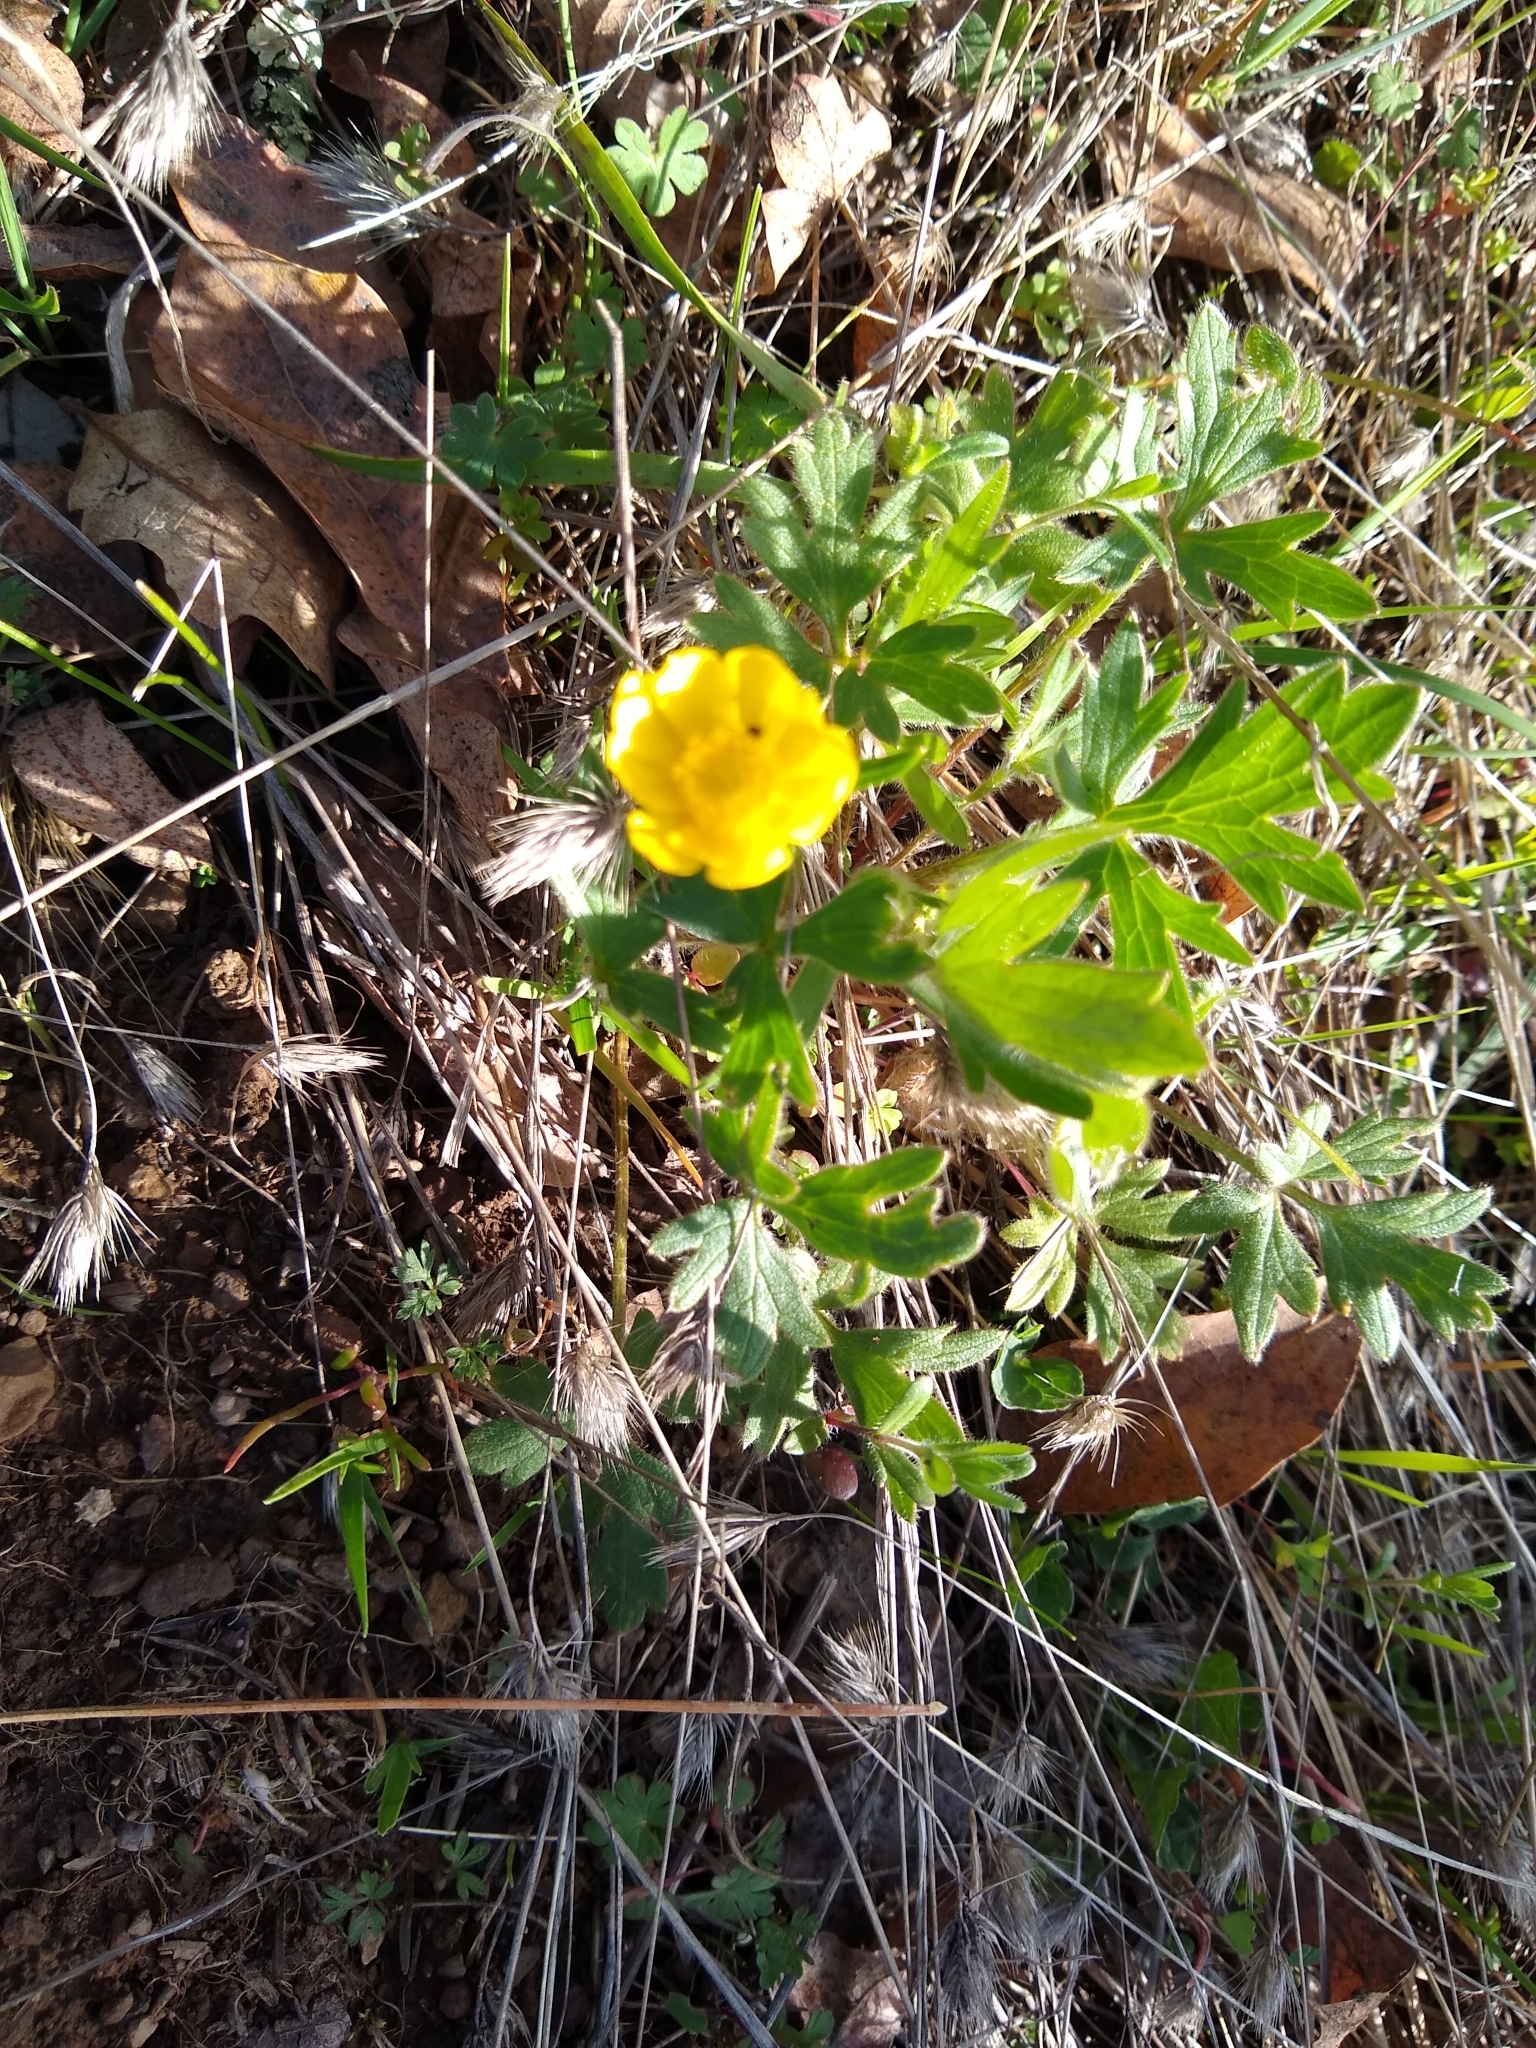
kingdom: Plantae
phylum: Tracheophyta
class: Magnoliopsida
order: Ranunculales
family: Ranunculaceae
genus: Ranunculus
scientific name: Ranunculus californicus
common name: California buttercup
